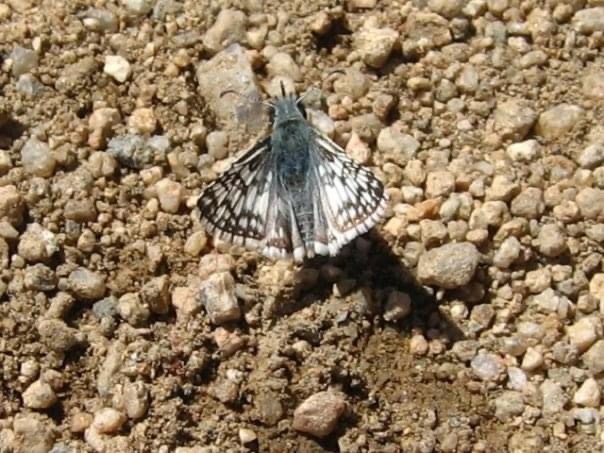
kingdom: Animalia
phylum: Arthropoda
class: Insecta
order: Lepidoptera
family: Hesperiidae
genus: Burnsius
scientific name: Burnsius albezens
